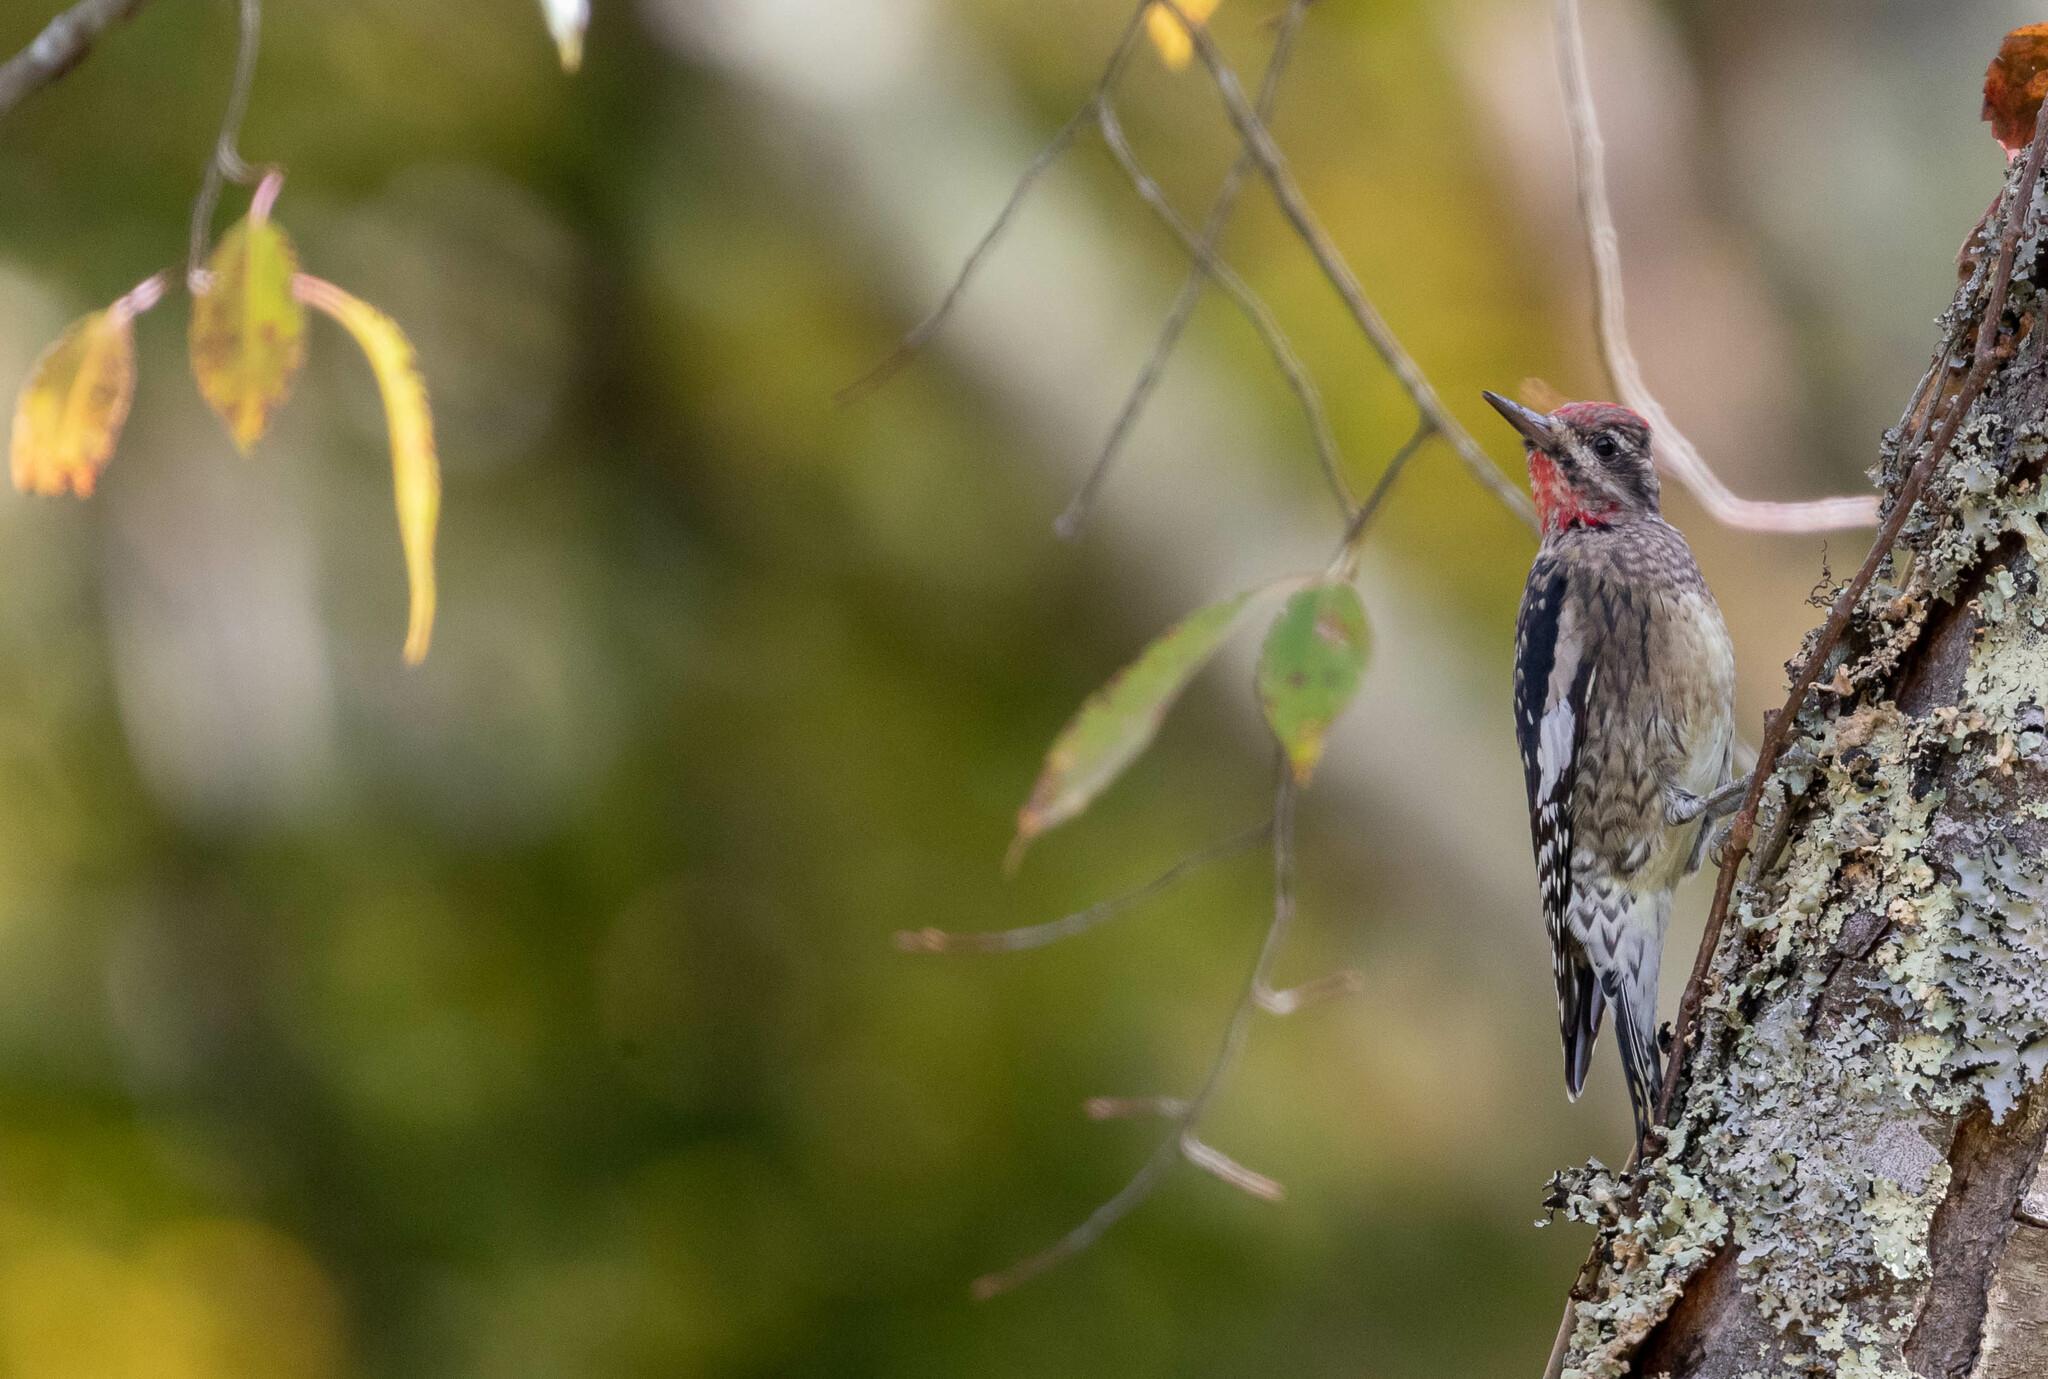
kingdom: Animalia
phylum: Chordata
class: Aves
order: Piciformes
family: Picidae
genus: Sphyrapicus
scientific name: Sphyrapicus varius
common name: Yellow-bellied sapsucker
